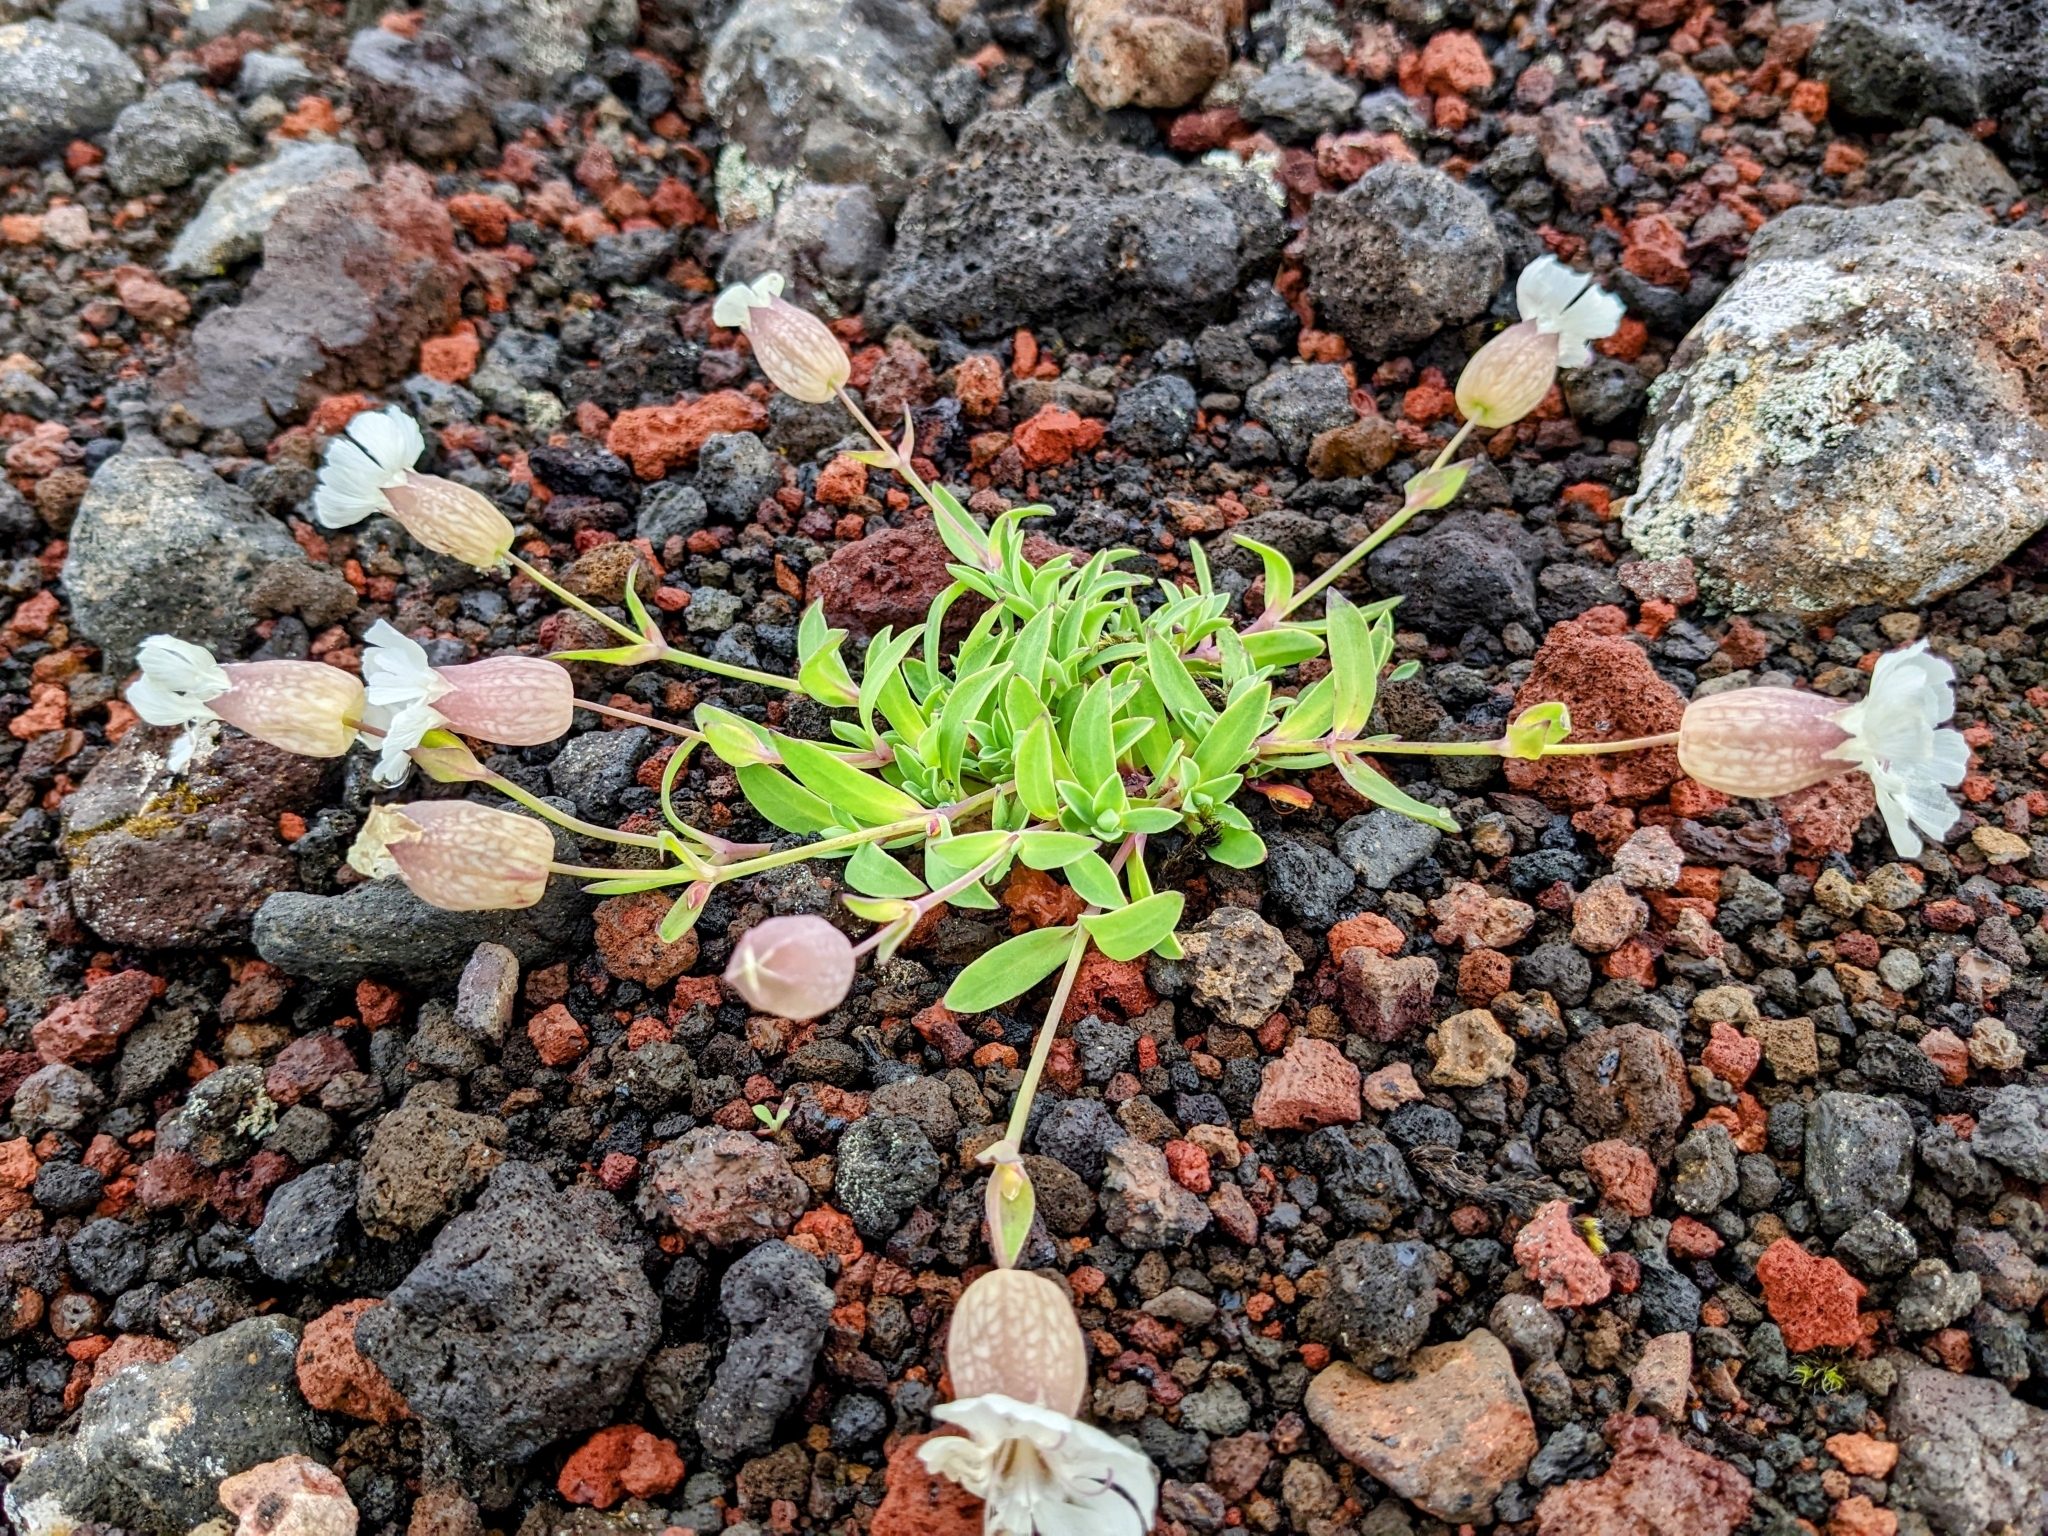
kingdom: Plantae
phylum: Tracheophyta
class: Magnoliopsida
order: Caryophyllales
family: Caryophyllaceae
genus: Silene
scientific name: Silene uniflora
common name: Sea campion
